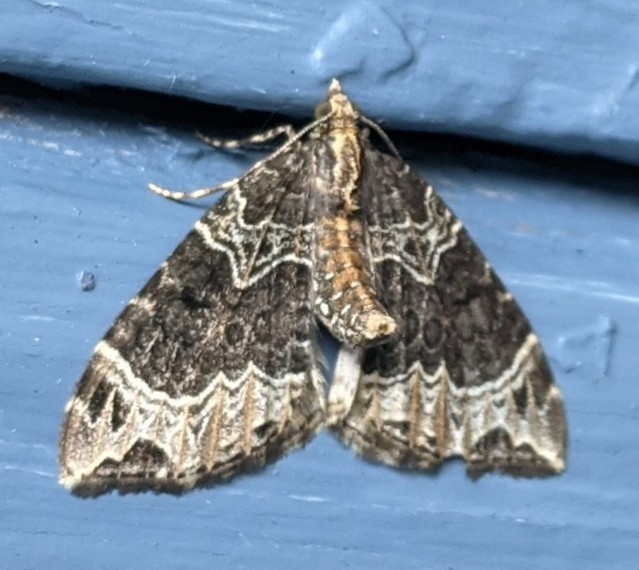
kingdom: Animalia
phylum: Arthropoda
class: Insecta
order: Lepidoptera
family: Geometridae
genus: Ecliptopera
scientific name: Ecliptopera silaceata
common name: Small phoenix
